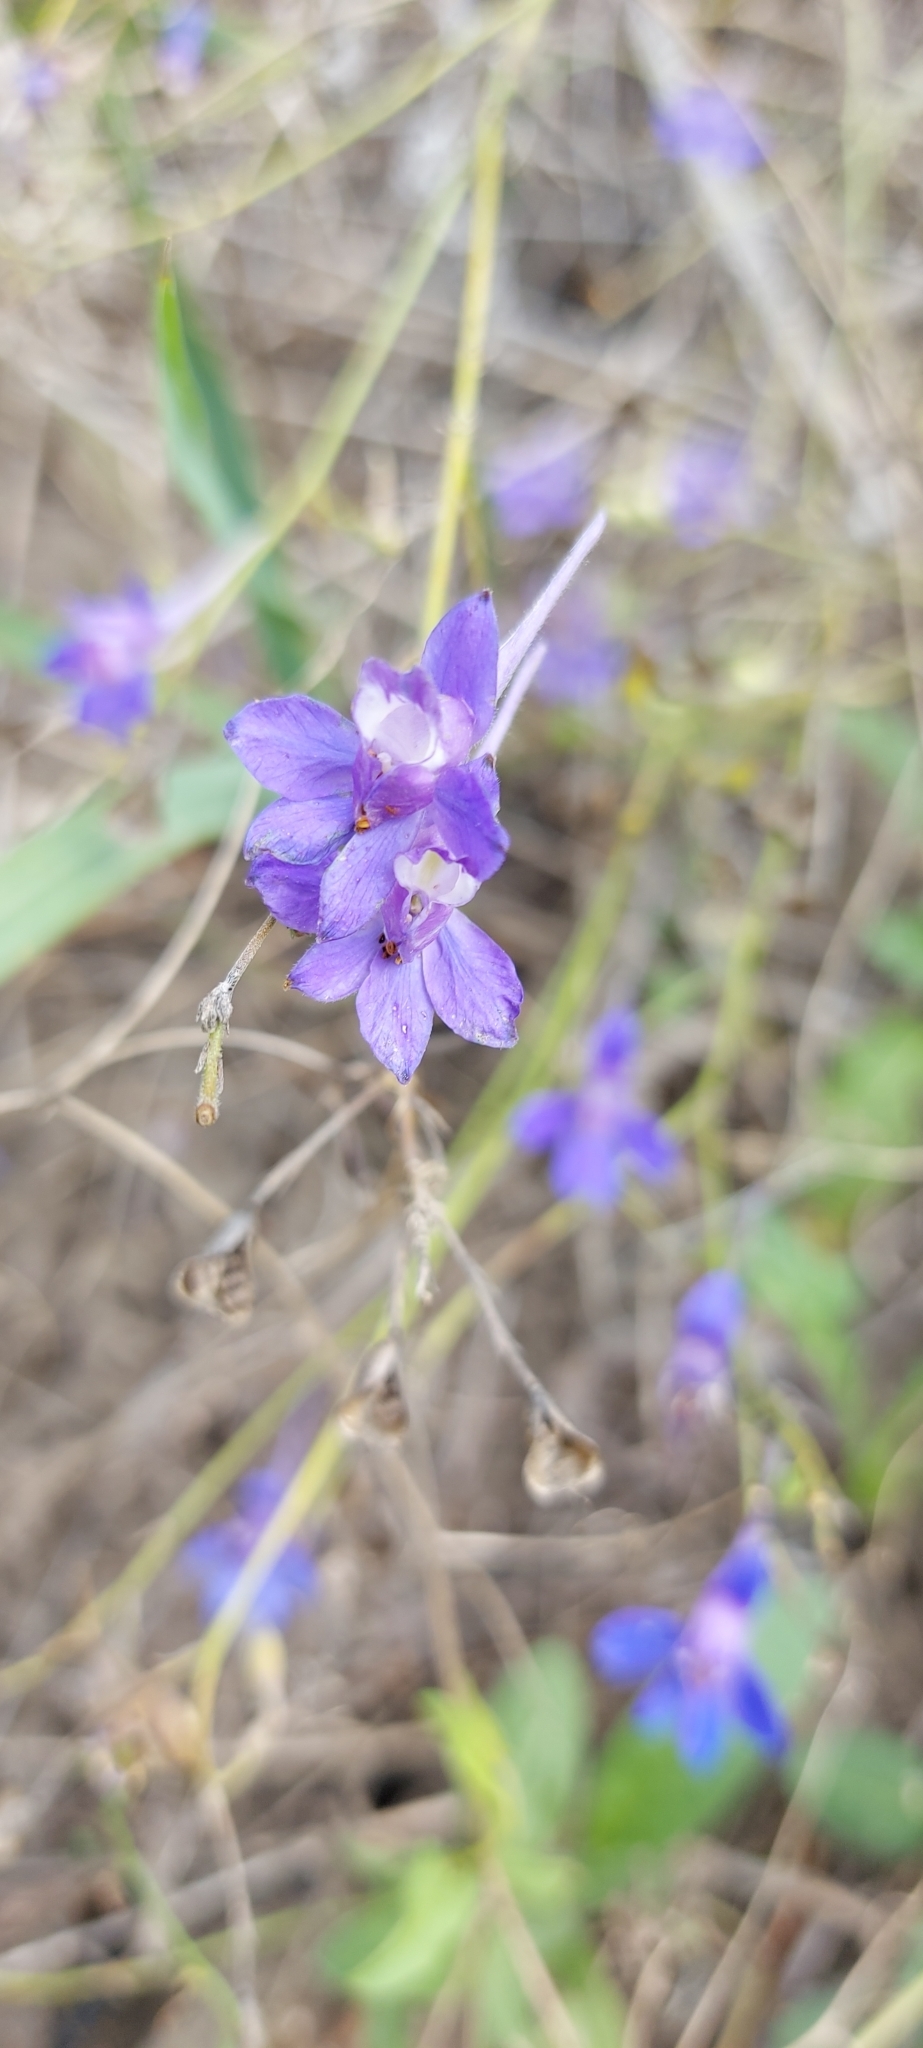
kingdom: Plantae
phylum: Tracheophyta
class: Magnoliopsida
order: Ranunculales
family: Ranunculaceae
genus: Delphinium
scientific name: Delphinium consolida
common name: Branching larkspur
